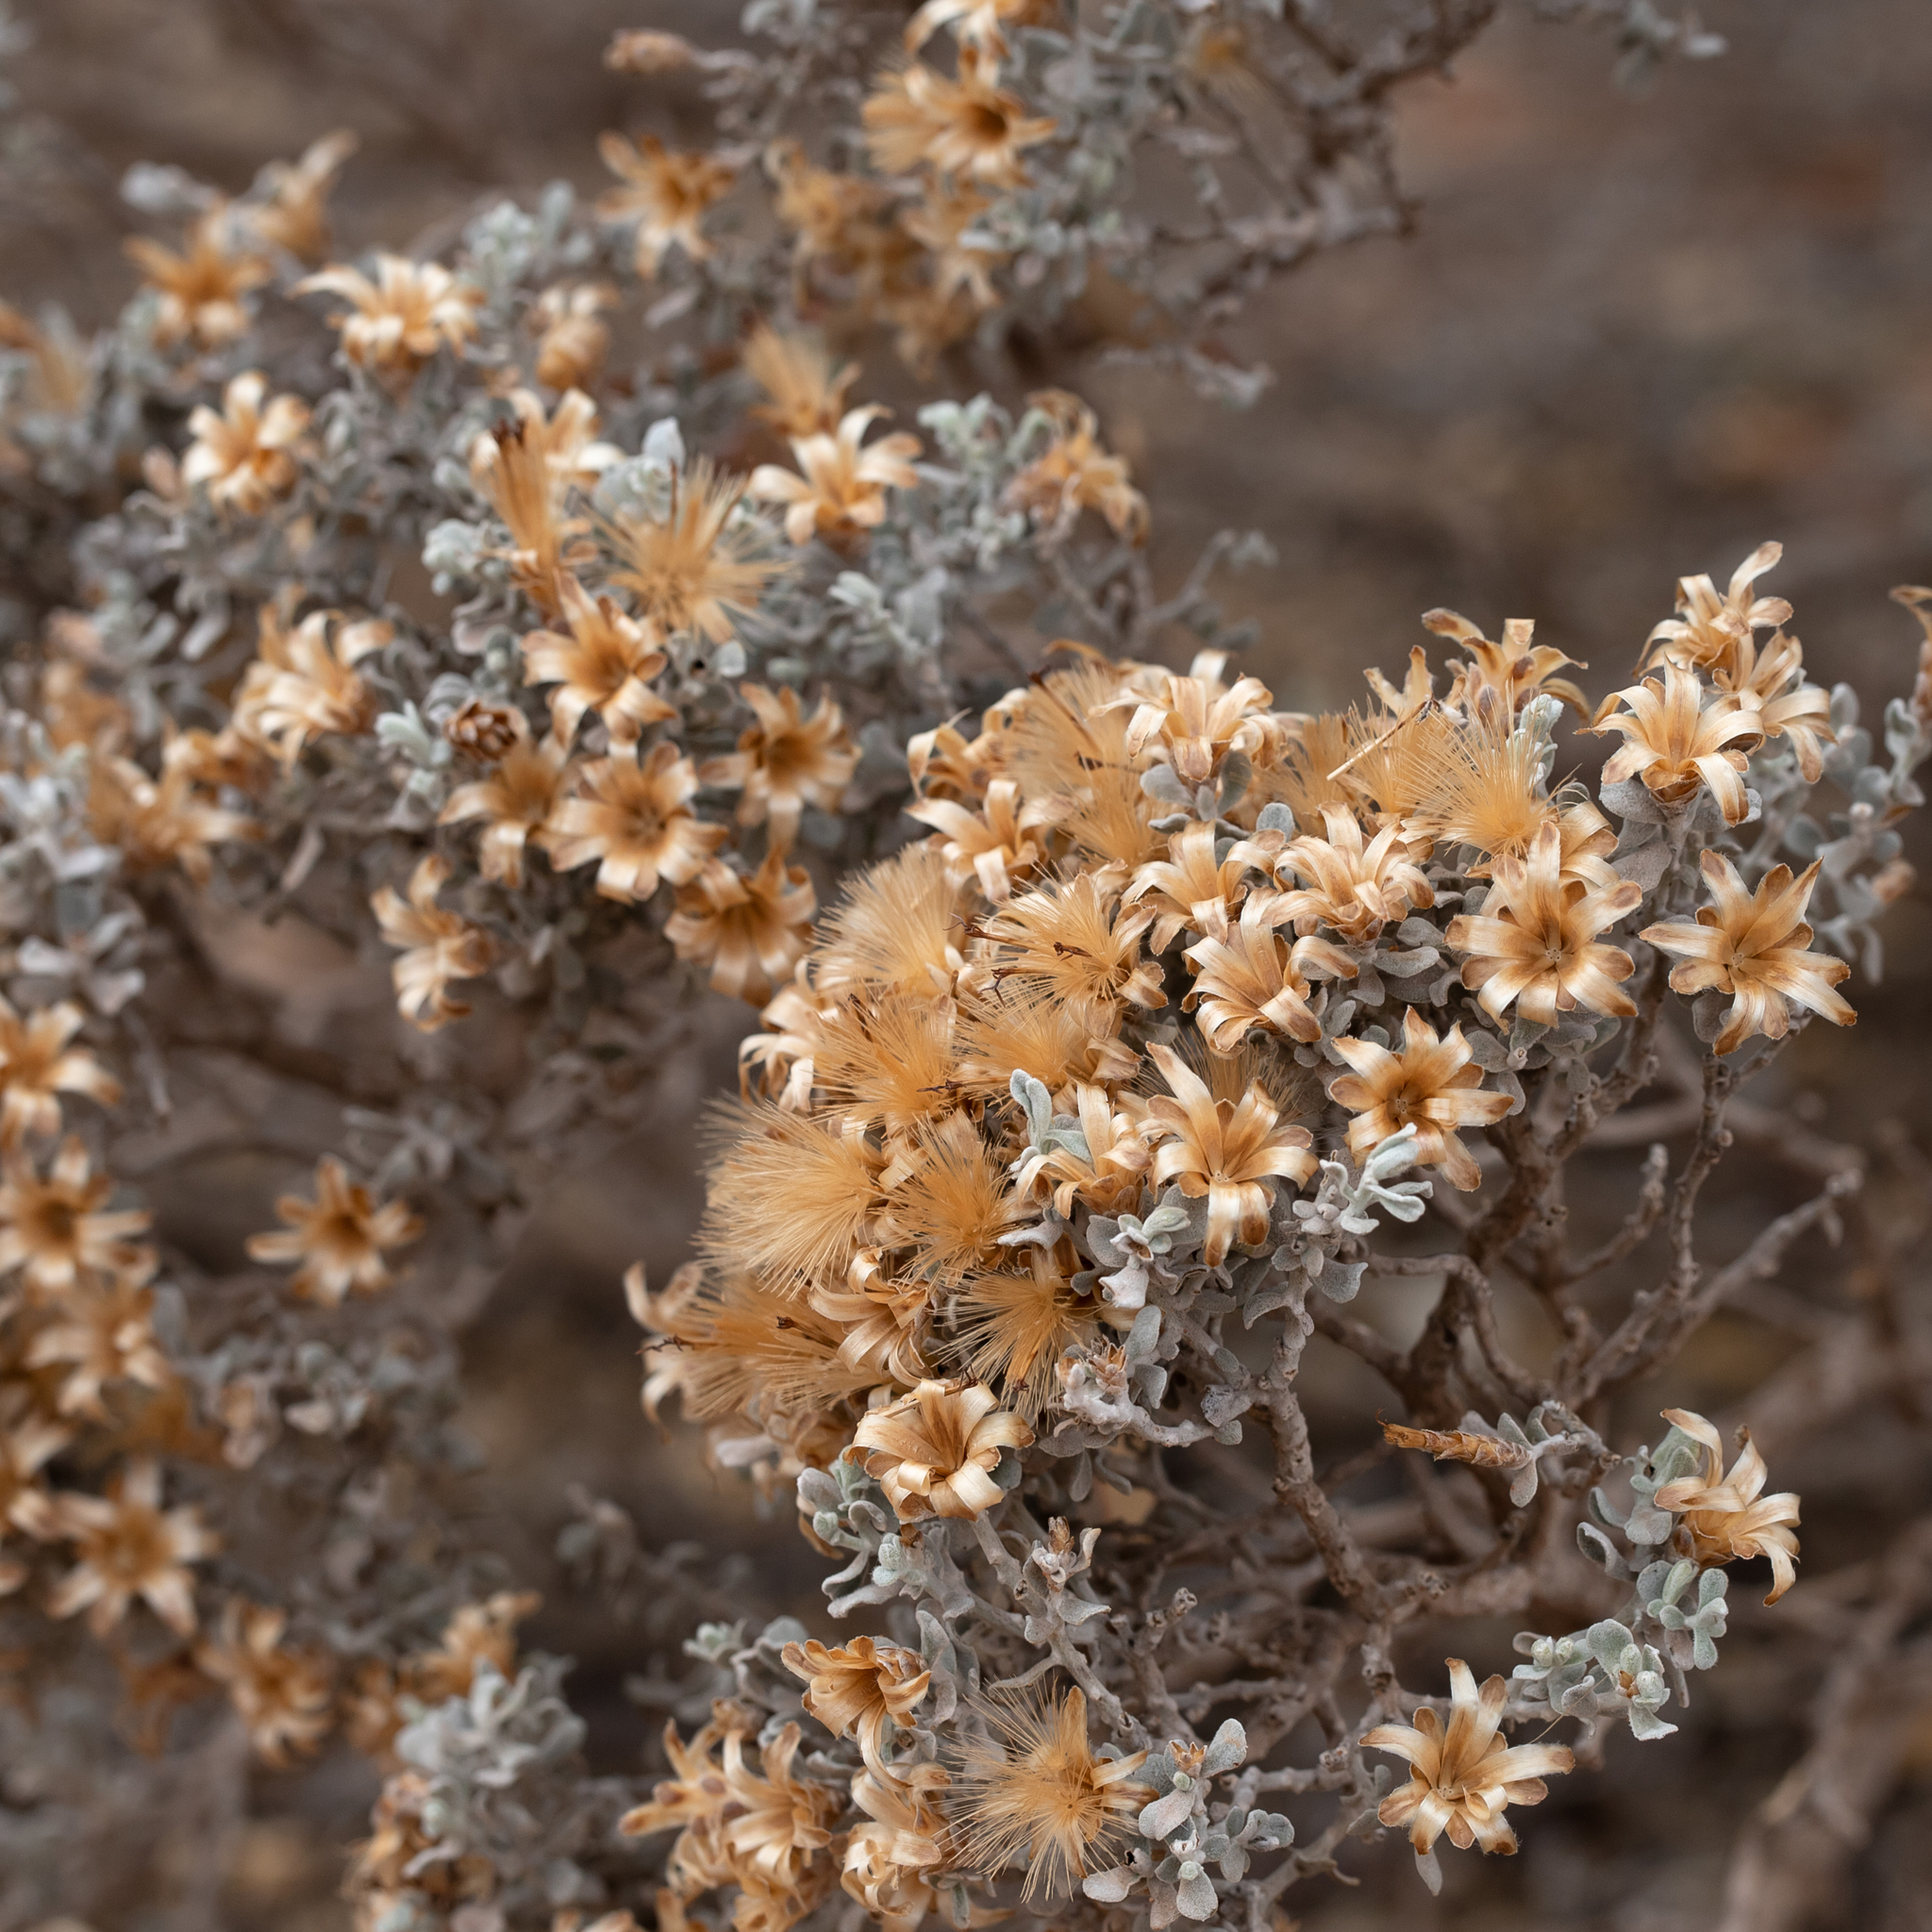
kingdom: Plantae
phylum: Tracheophyta
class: Magnoliopsida
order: Asterales
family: Asteraceae
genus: Cratystylis
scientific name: Cratystylis conocephala
